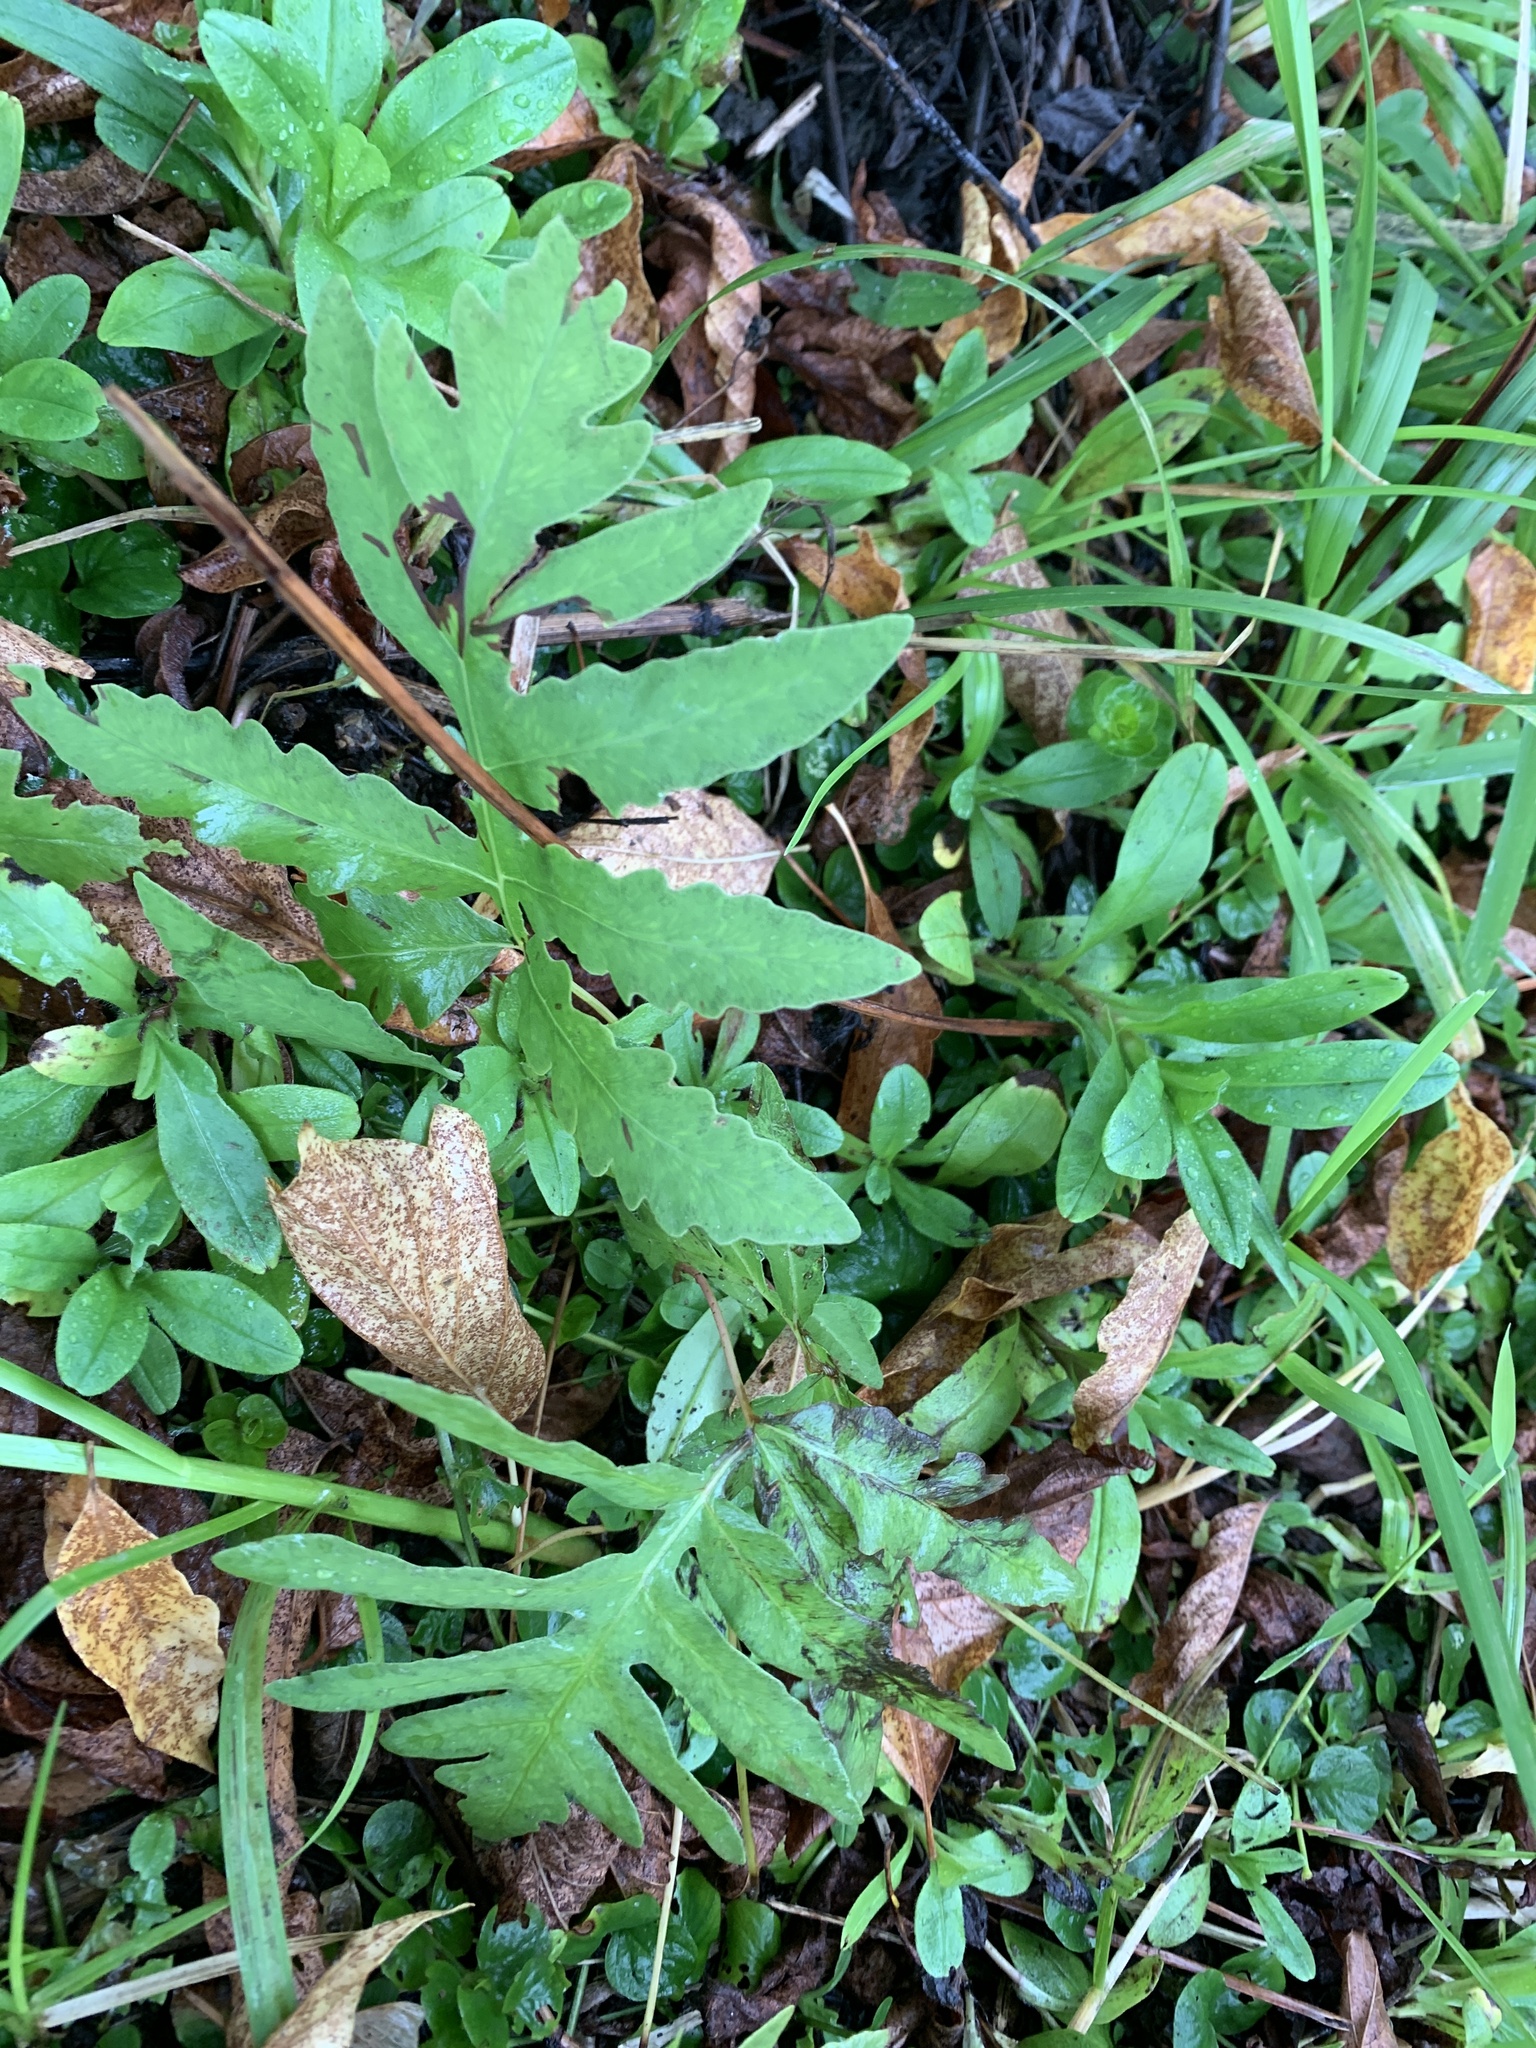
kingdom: Plantae
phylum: Tracheophyta
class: Polypodiopsida
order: Polypodiales
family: Onocleaceae
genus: Onoclea
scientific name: Onoclea sensibilis
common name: Sensitive fern
